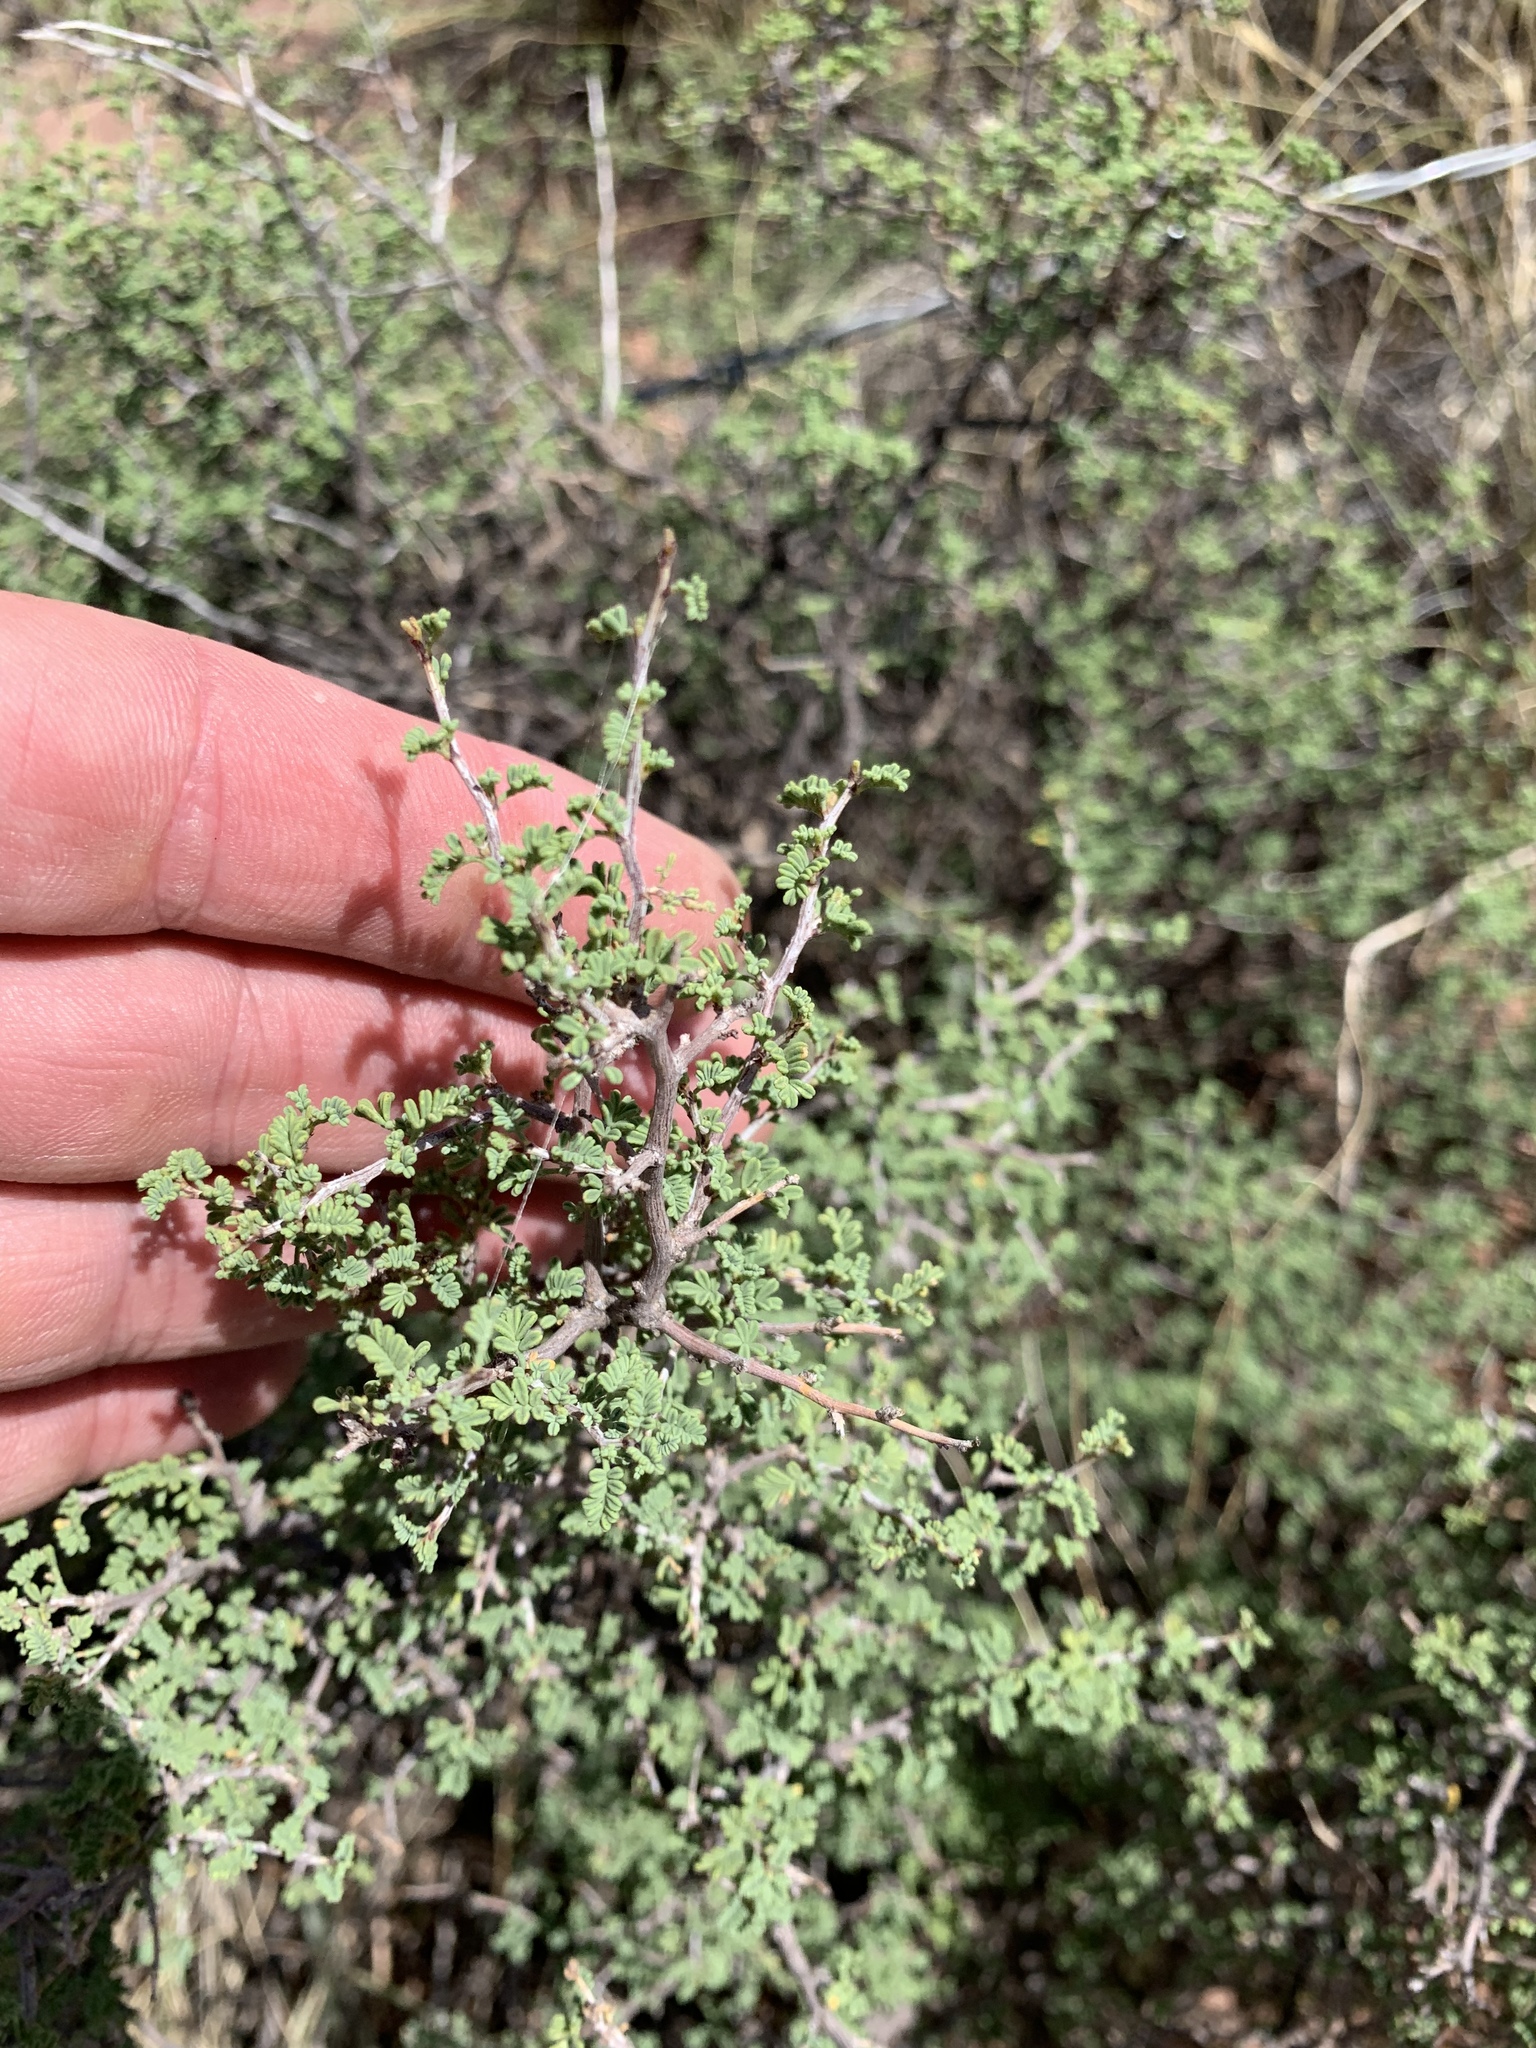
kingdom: Plantae
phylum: Tracheophyta
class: Magnoliopsida
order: Fabales
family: Fabaceae
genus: Dalea
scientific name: Dalea formosa
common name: Feather-plume dalea
